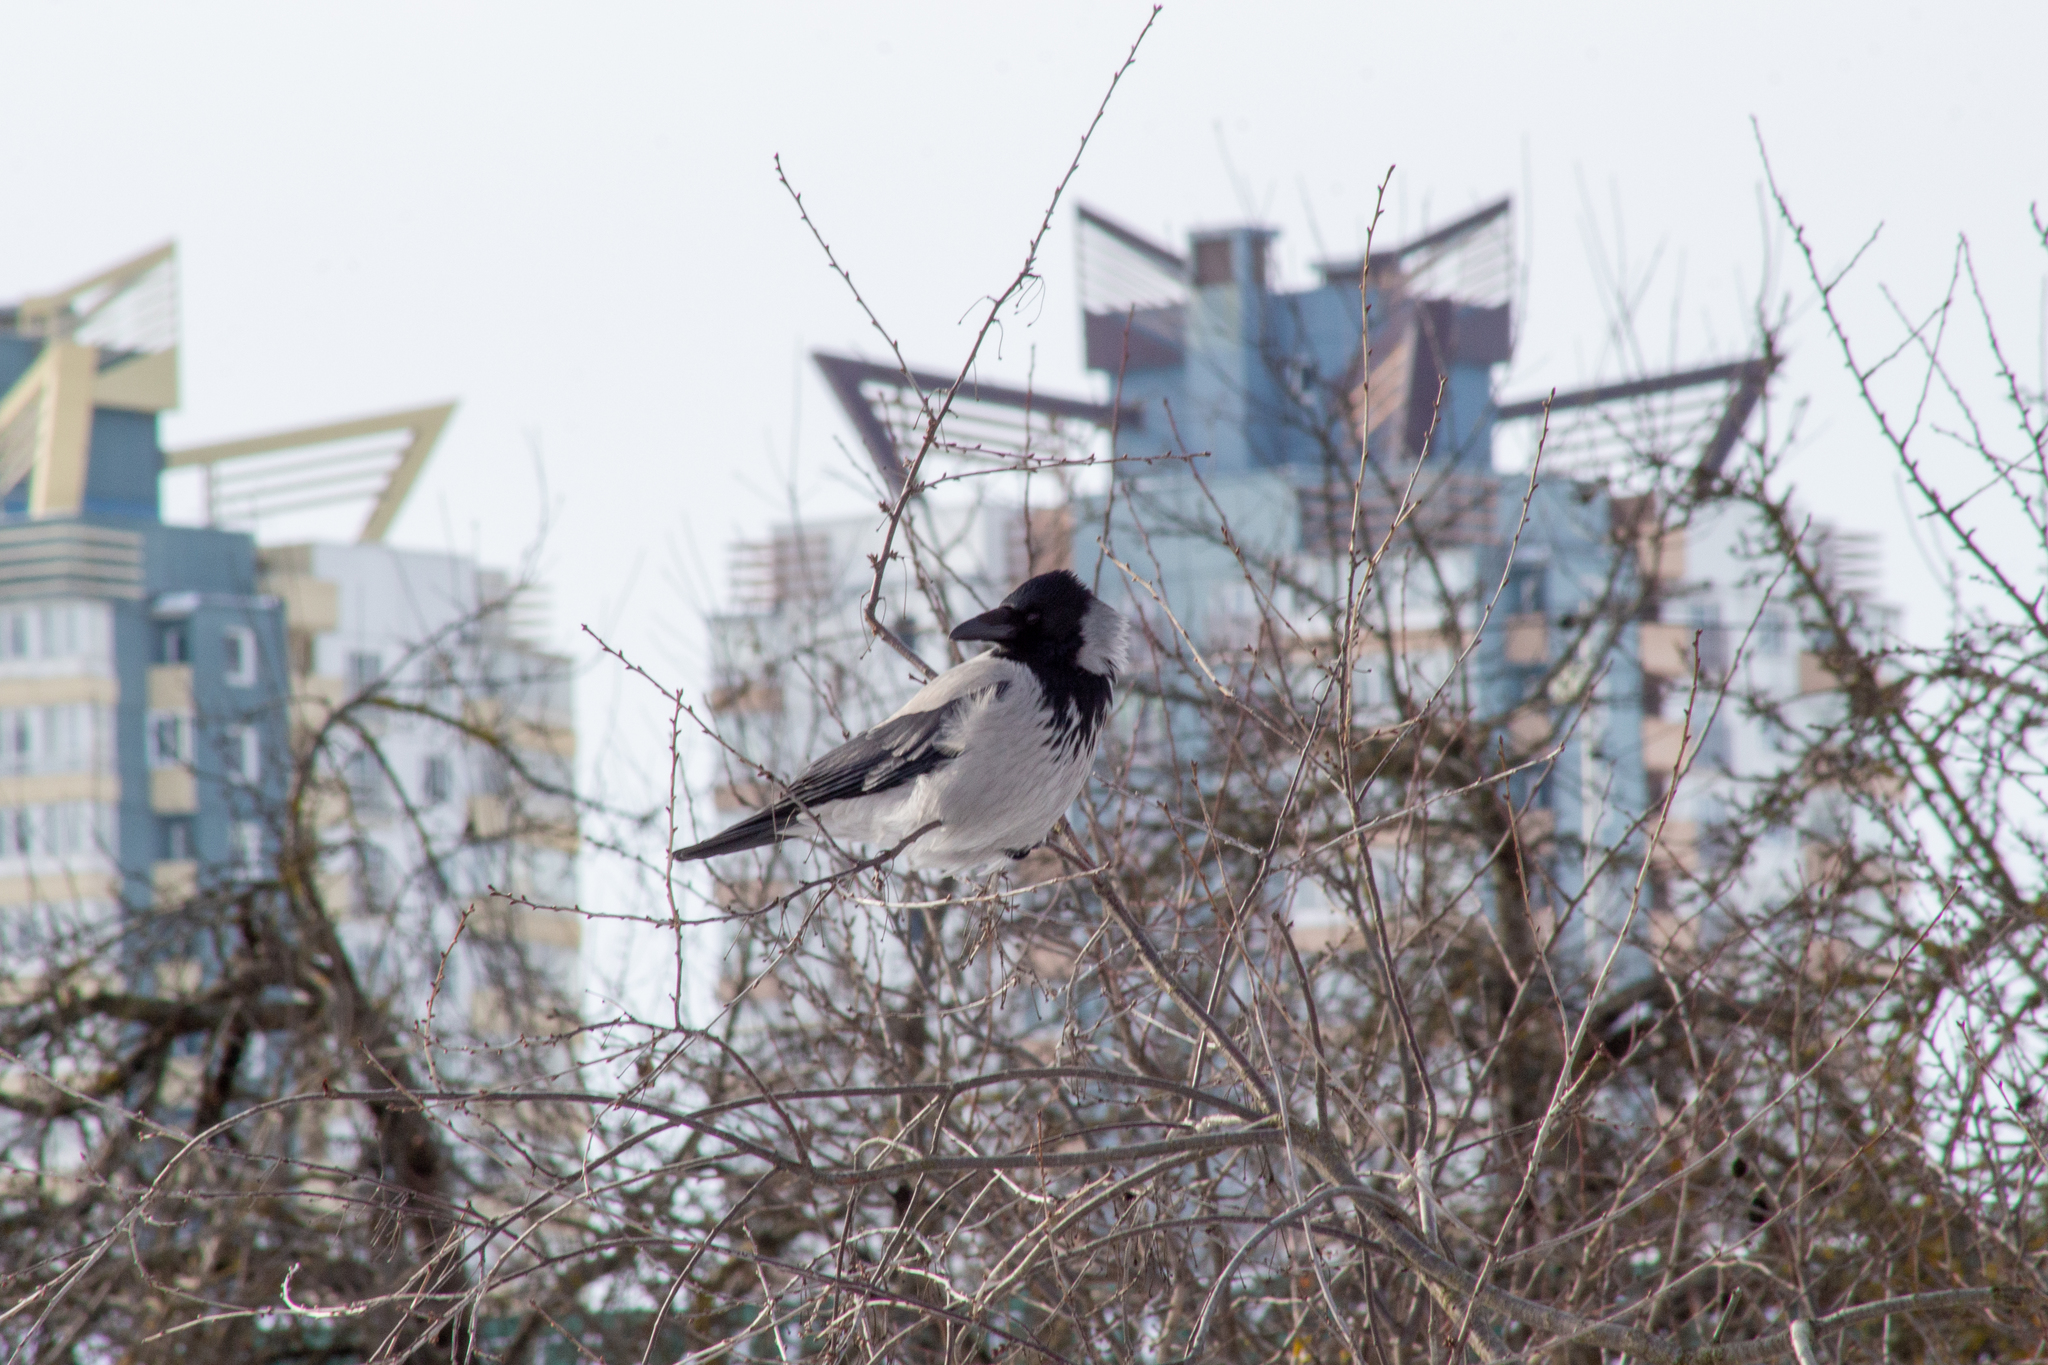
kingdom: Animalia
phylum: Chordata
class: Aves
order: Passeriformes
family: Corvidae
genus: Corvus
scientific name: Corvus cornix
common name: Hooded crow
